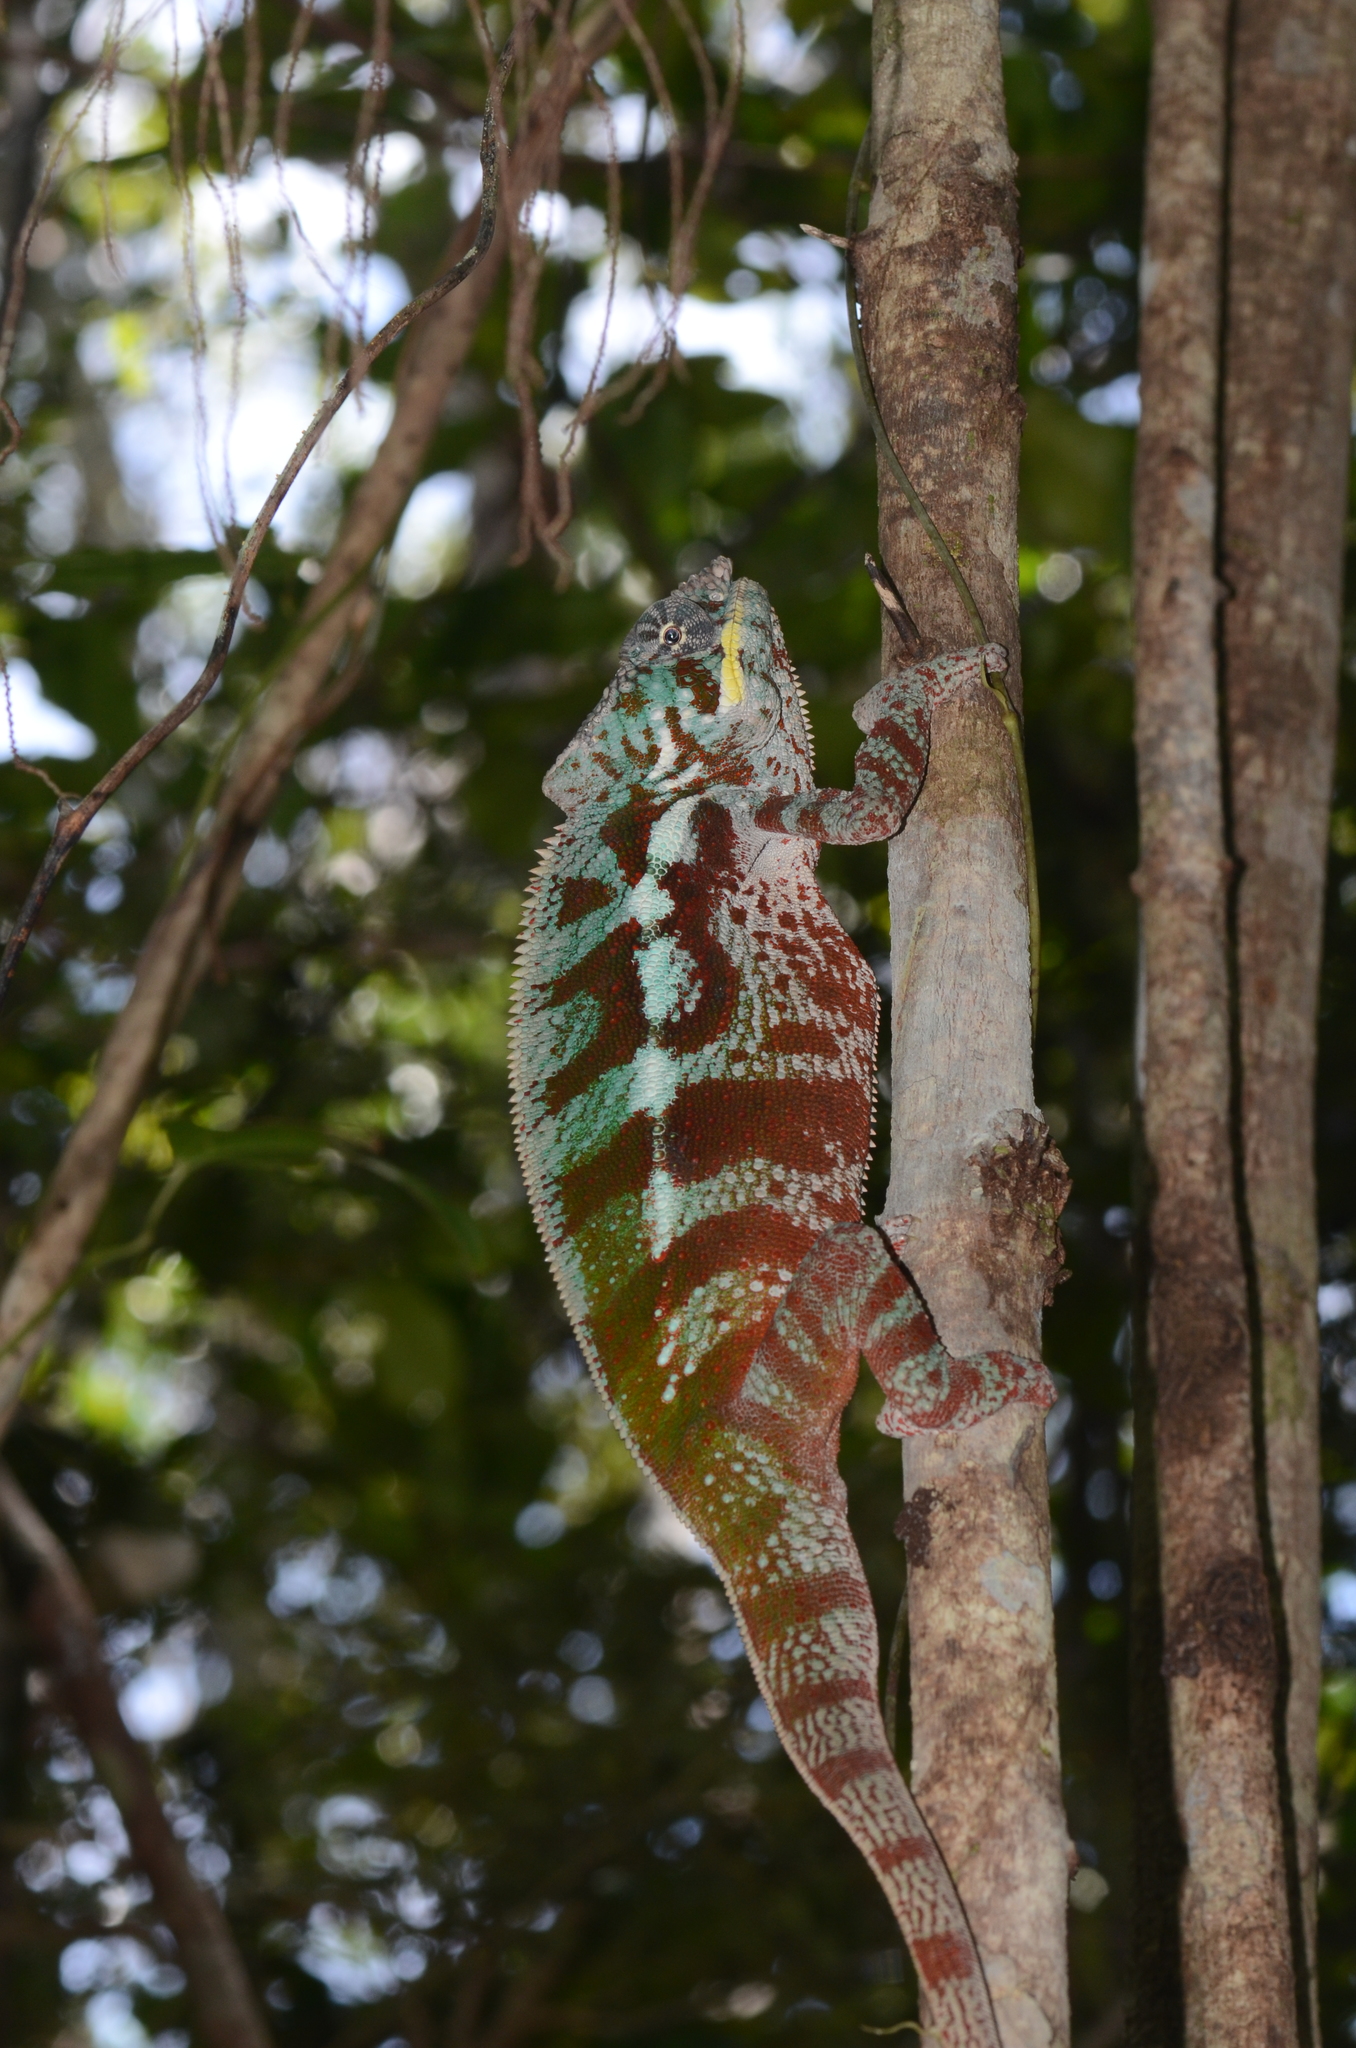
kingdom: Animalia
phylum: Chordata
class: Squamata
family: Chamaeleonidae
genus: Furcifer
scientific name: Furcifer pardalis
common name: Panther chameleon
